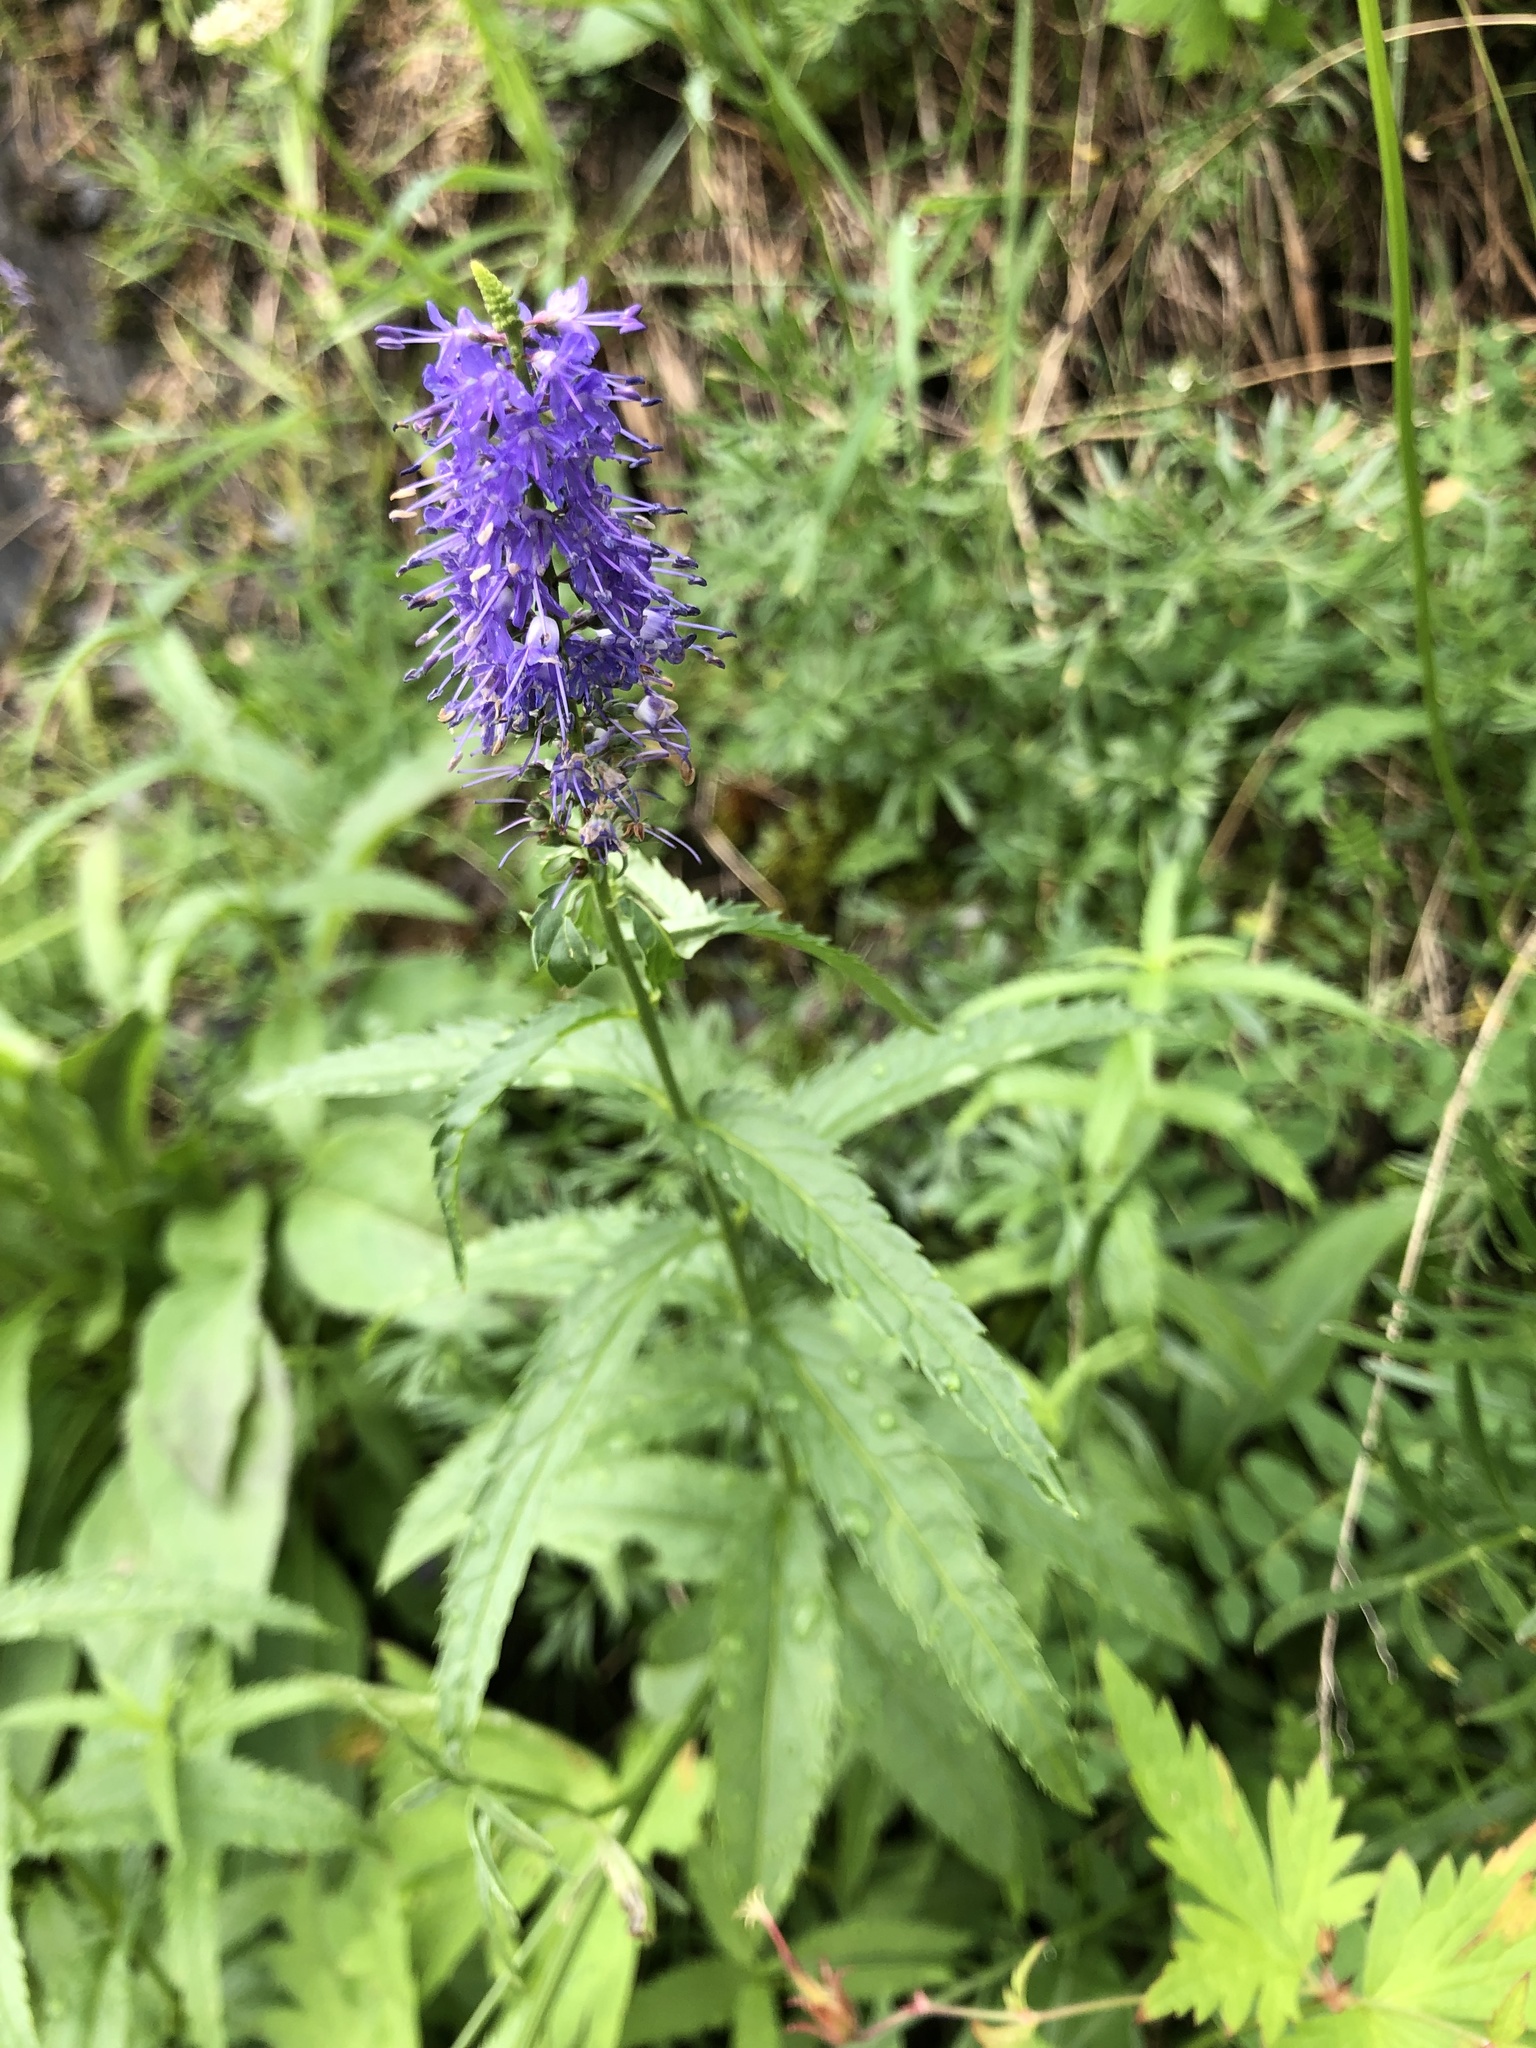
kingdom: Plantae
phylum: Tracheophyta
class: Magnoliopsida
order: Lamiales
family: Plantaginaceae
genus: Veronica
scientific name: Veronica longifolia
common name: Garden speedwell
